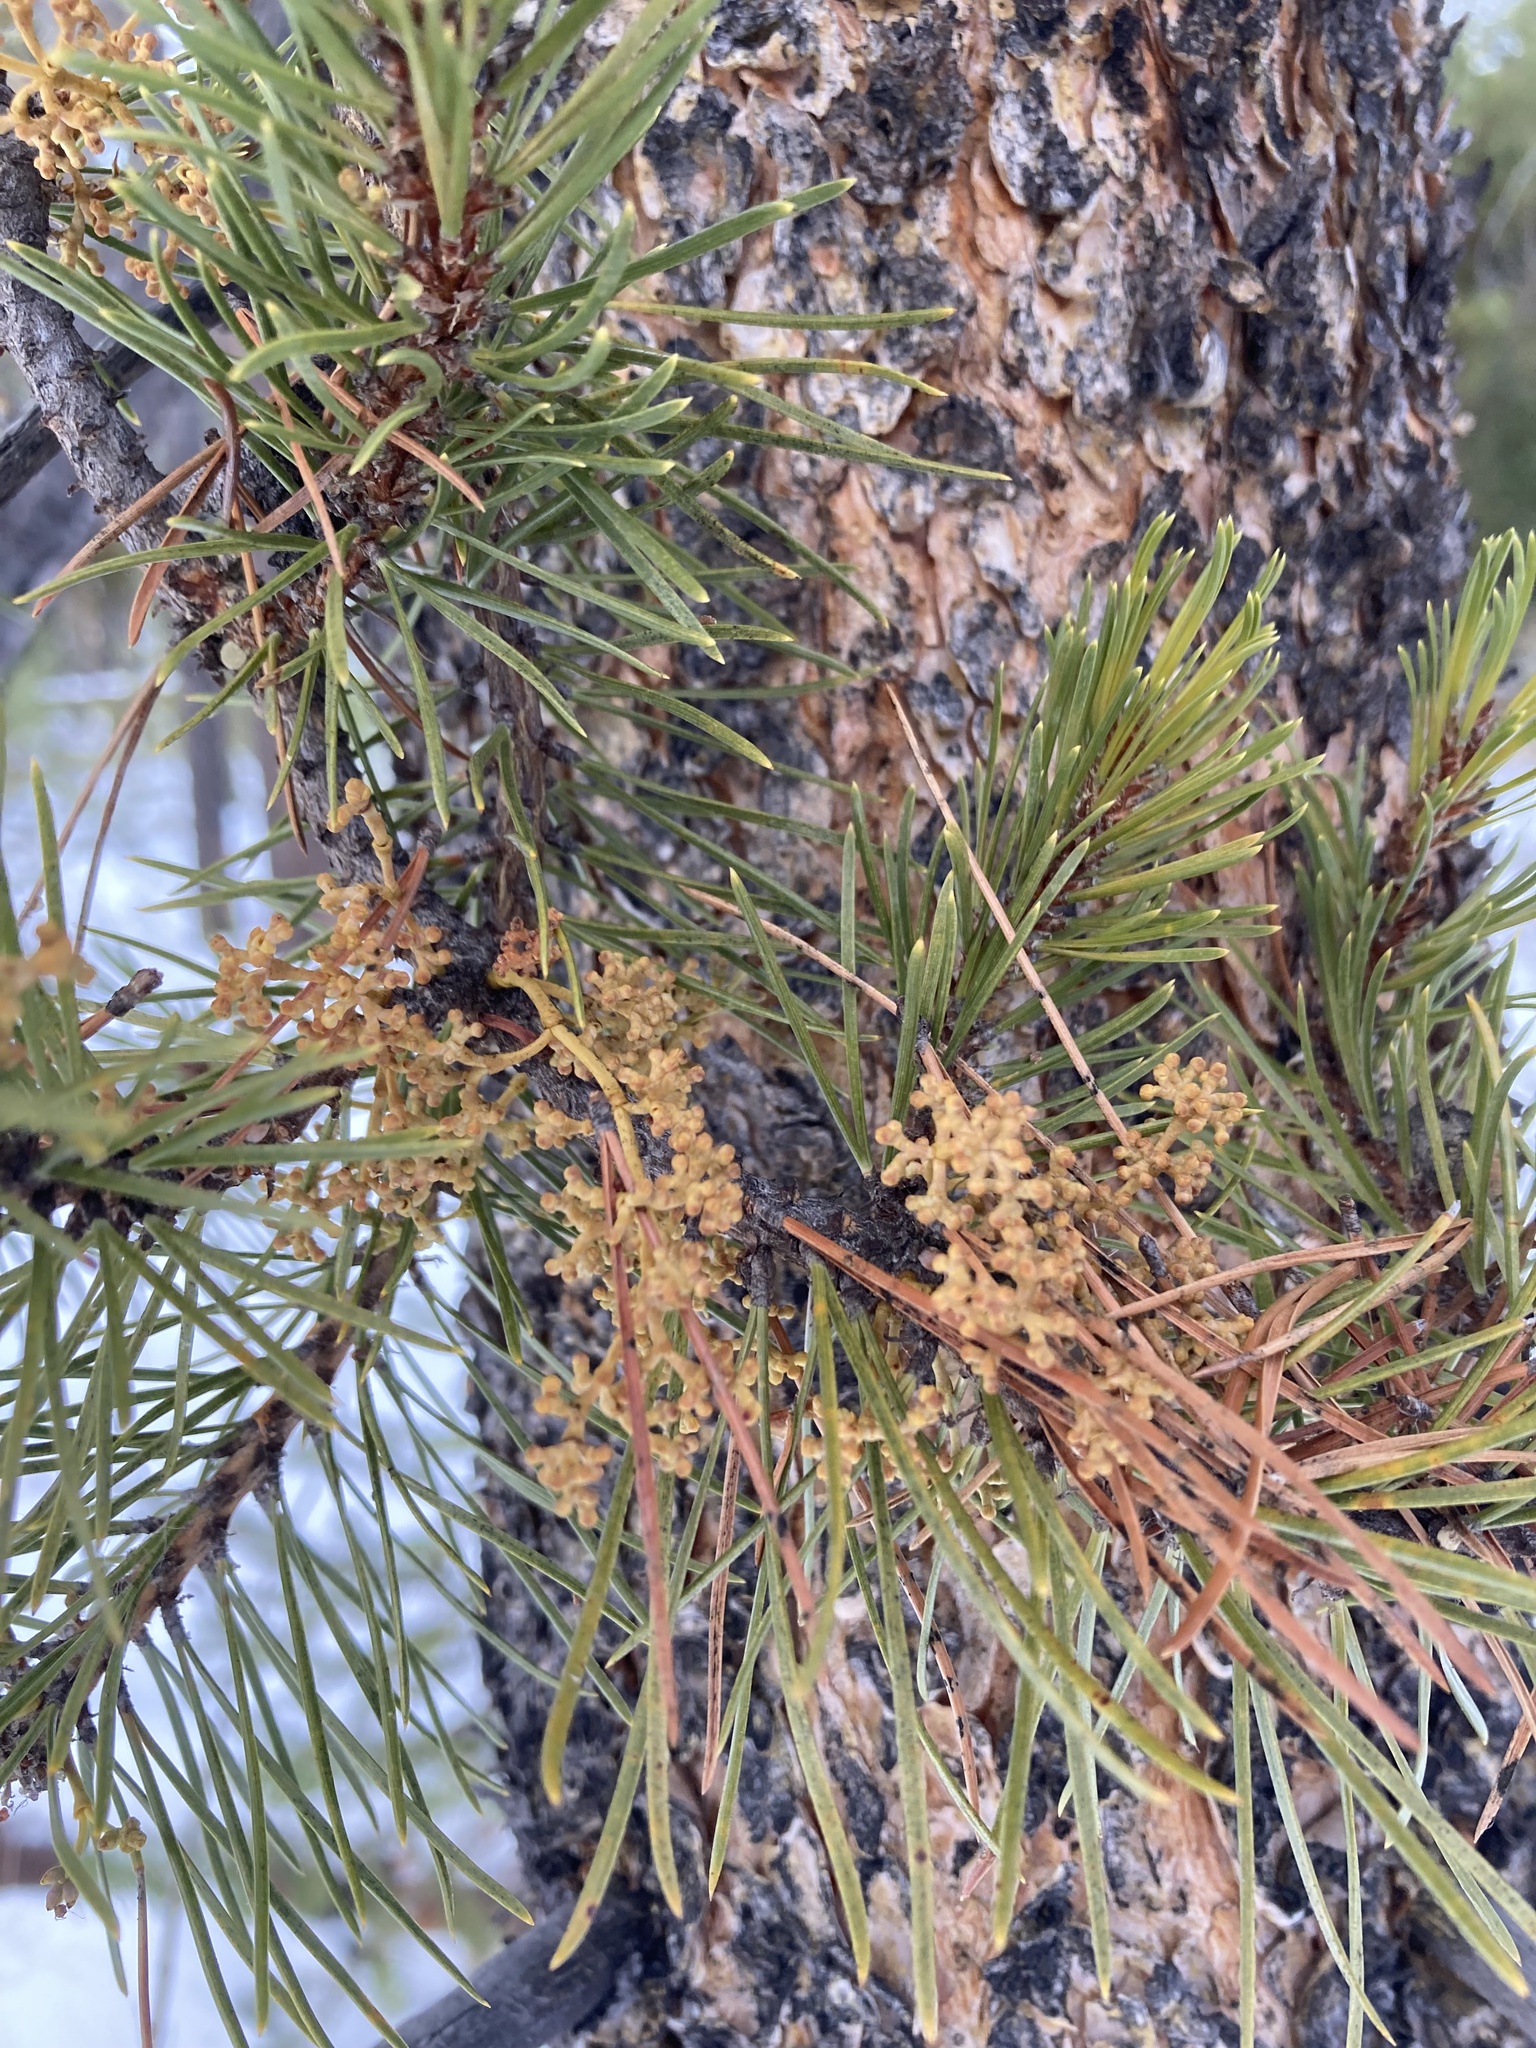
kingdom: Plantae
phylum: Tracheophyta
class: Magnoliopsida
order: Santalales
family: Viscaceae
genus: Arceuthobium
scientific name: Arceuthobium americanum
